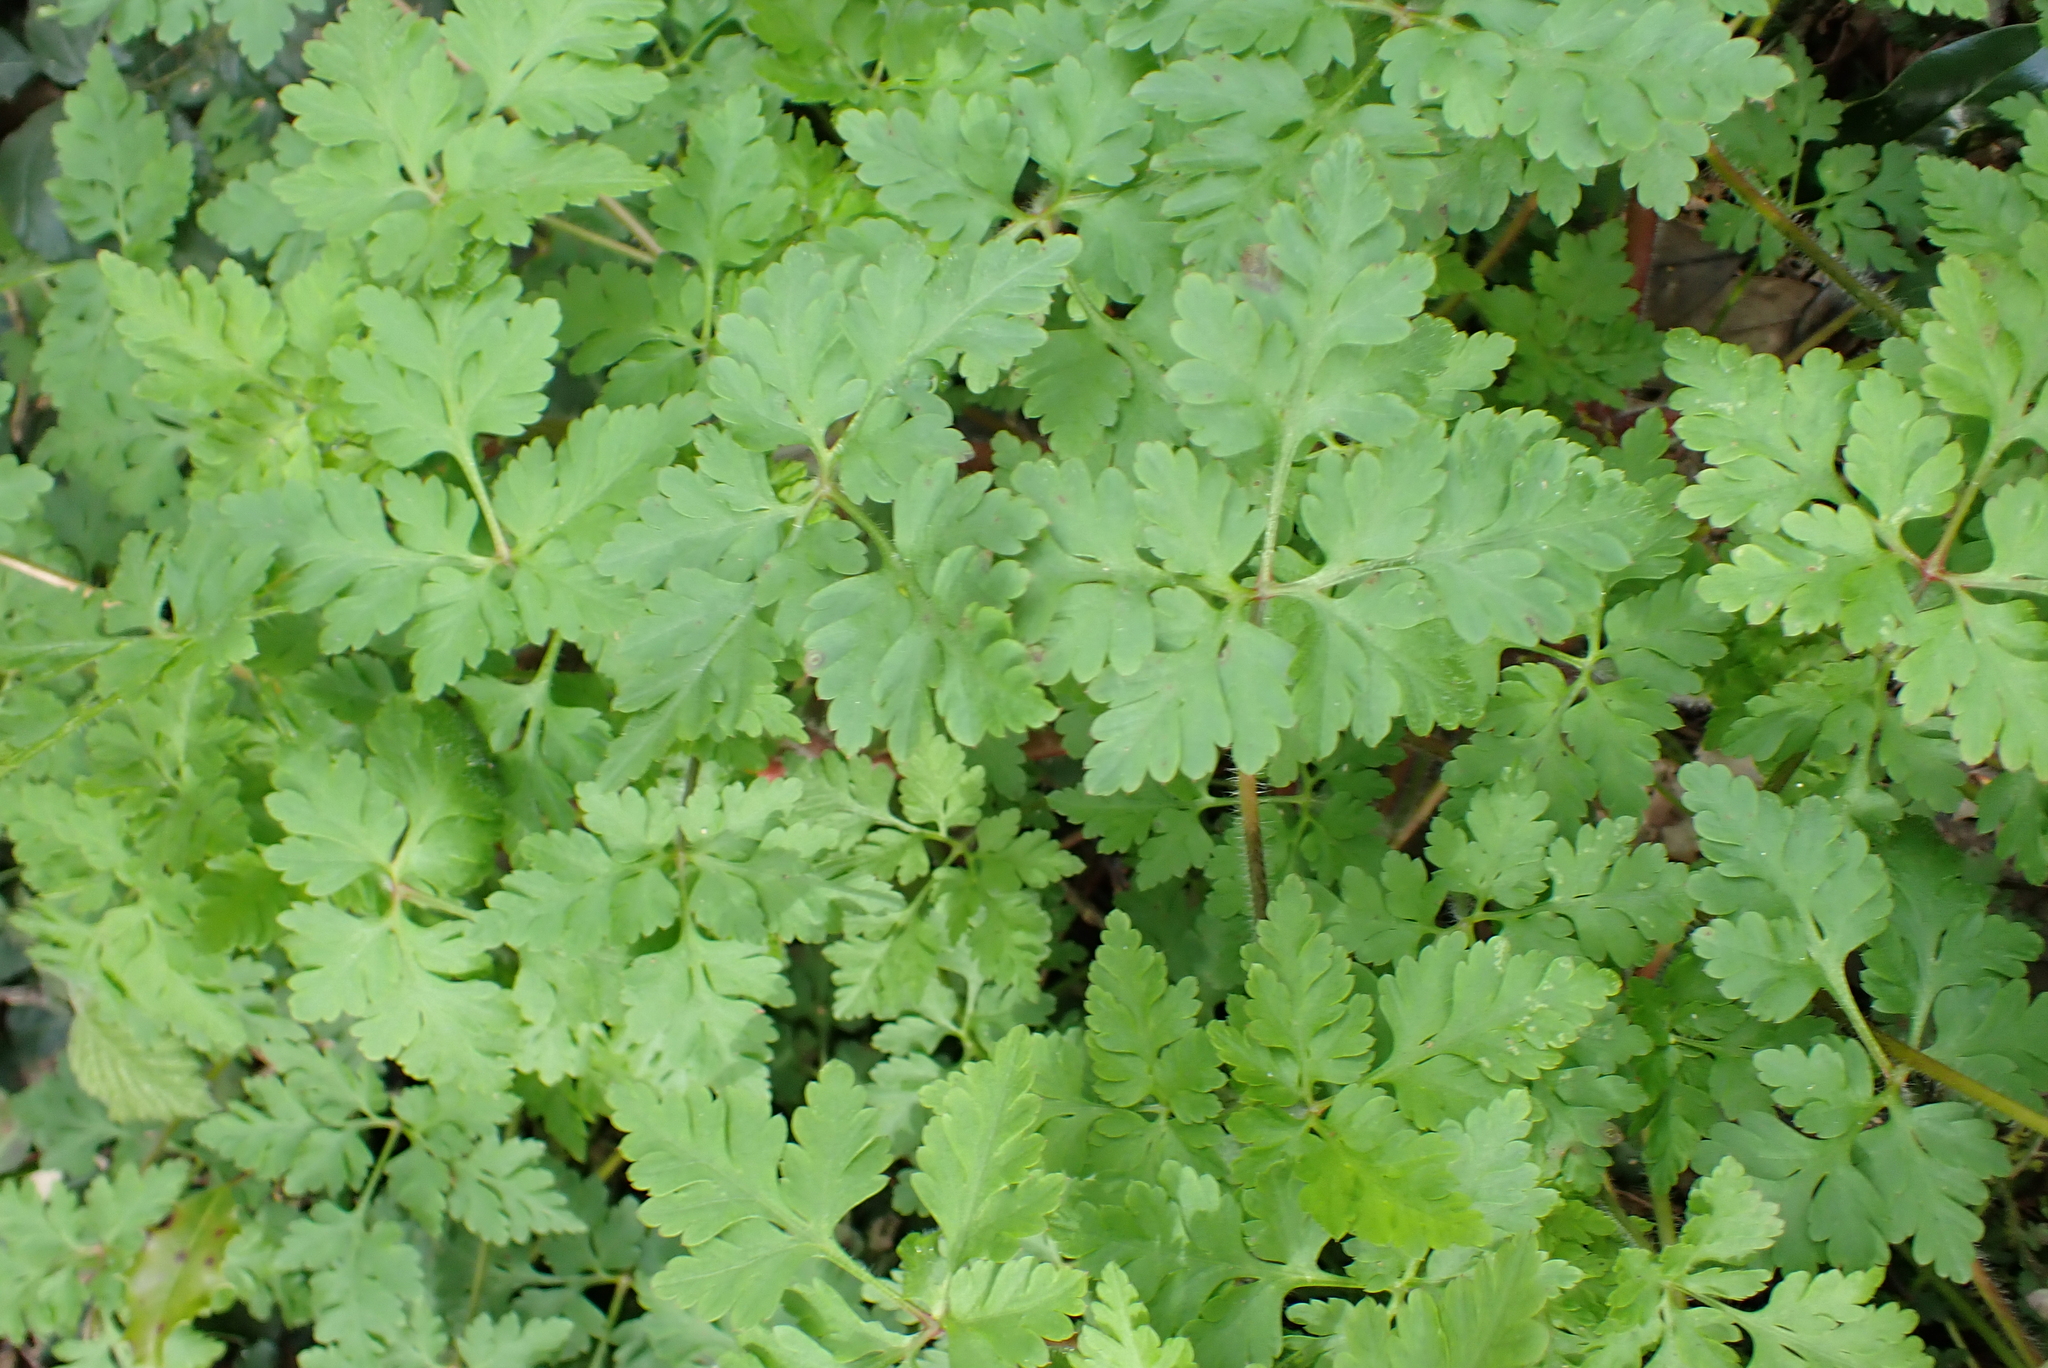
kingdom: Plantae
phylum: Tracheophyta
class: Magnoliopsida
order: Geraniales
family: Geraniaceae
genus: Geranium
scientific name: Geranium robertianum
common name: Herb-robert
